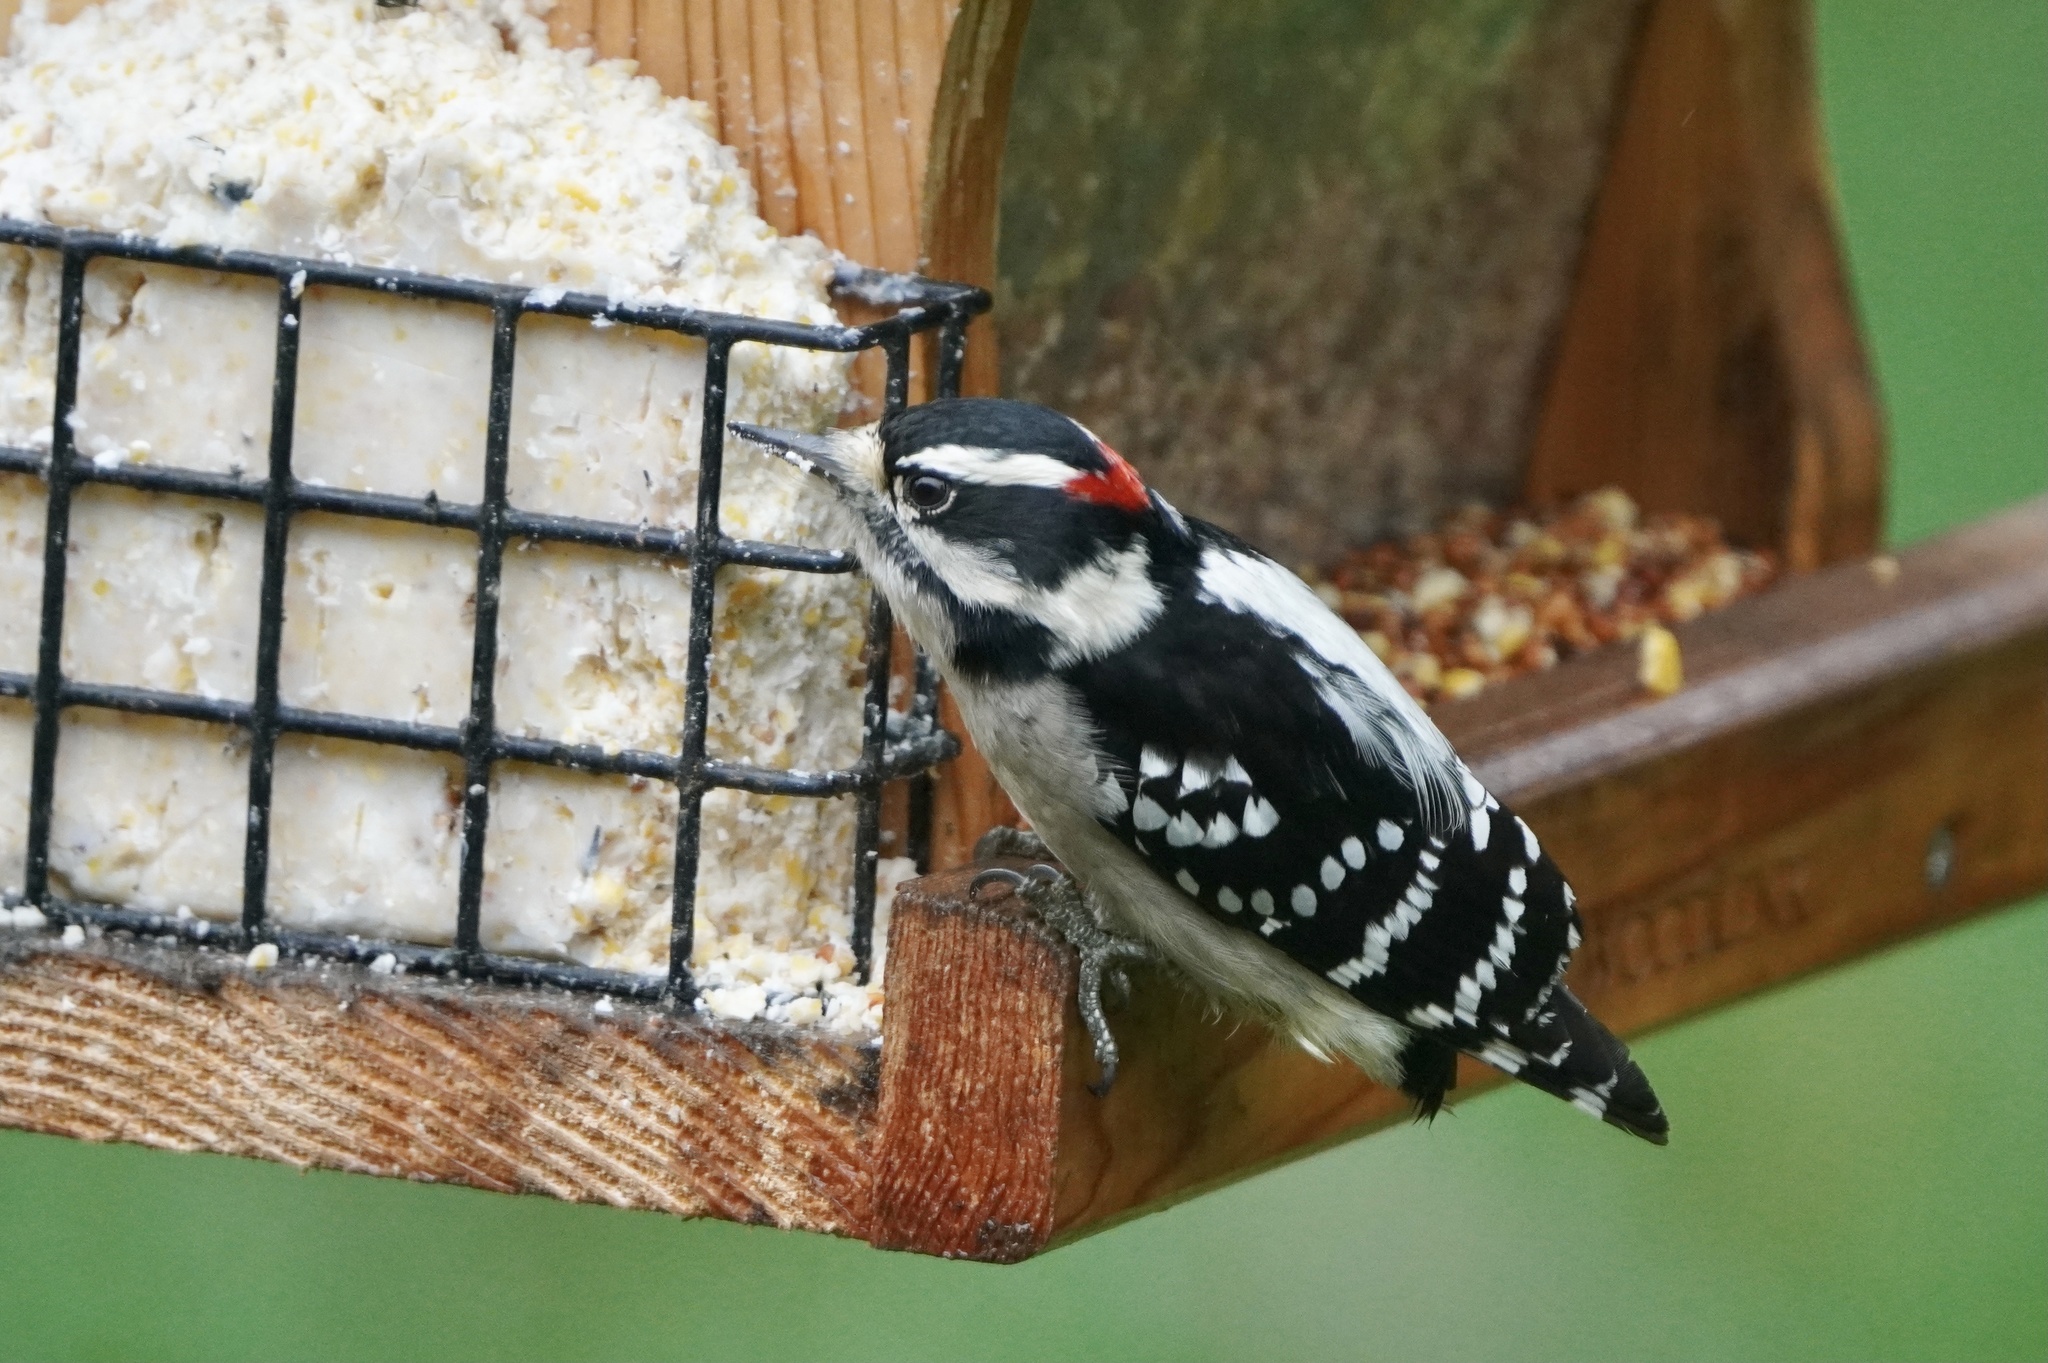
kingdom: Animalia
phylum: Chordata
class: Aves
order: Piciformes
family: Picidae
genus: Dryobates
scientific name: Dryobates pubescens
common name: Downy woodpecker
